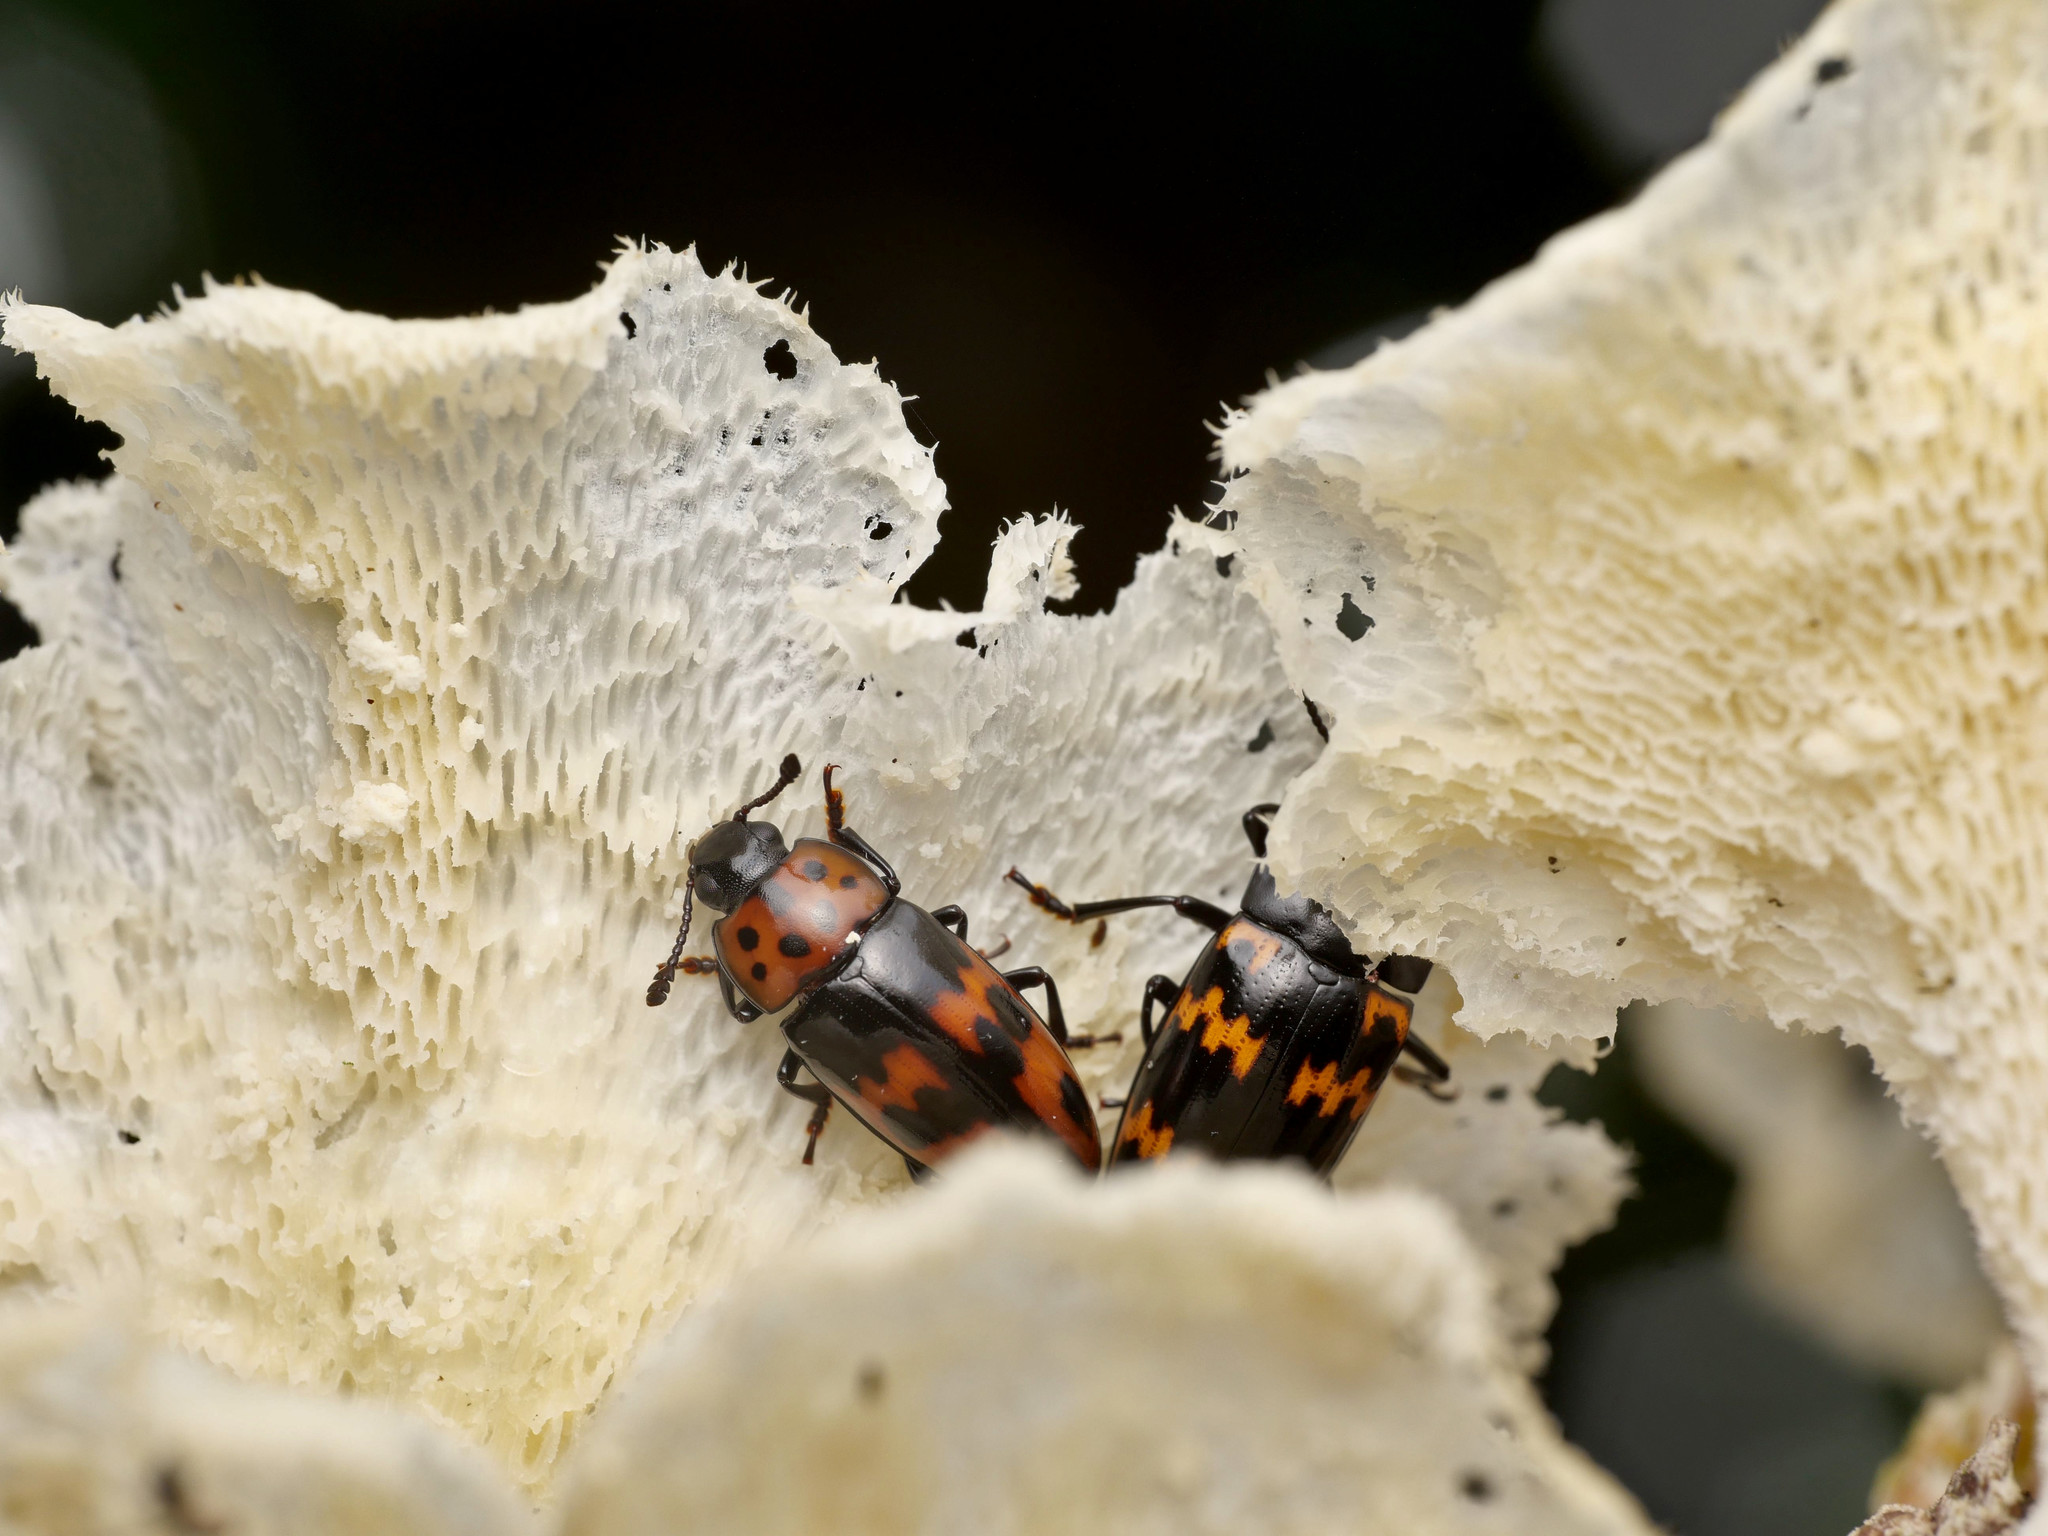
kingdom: Animalia
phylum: Arthropoda
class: Insecta
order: Coleoptera
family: Erotylidae
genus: Pselaphacus
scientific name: Pselaphacus puncticollis
